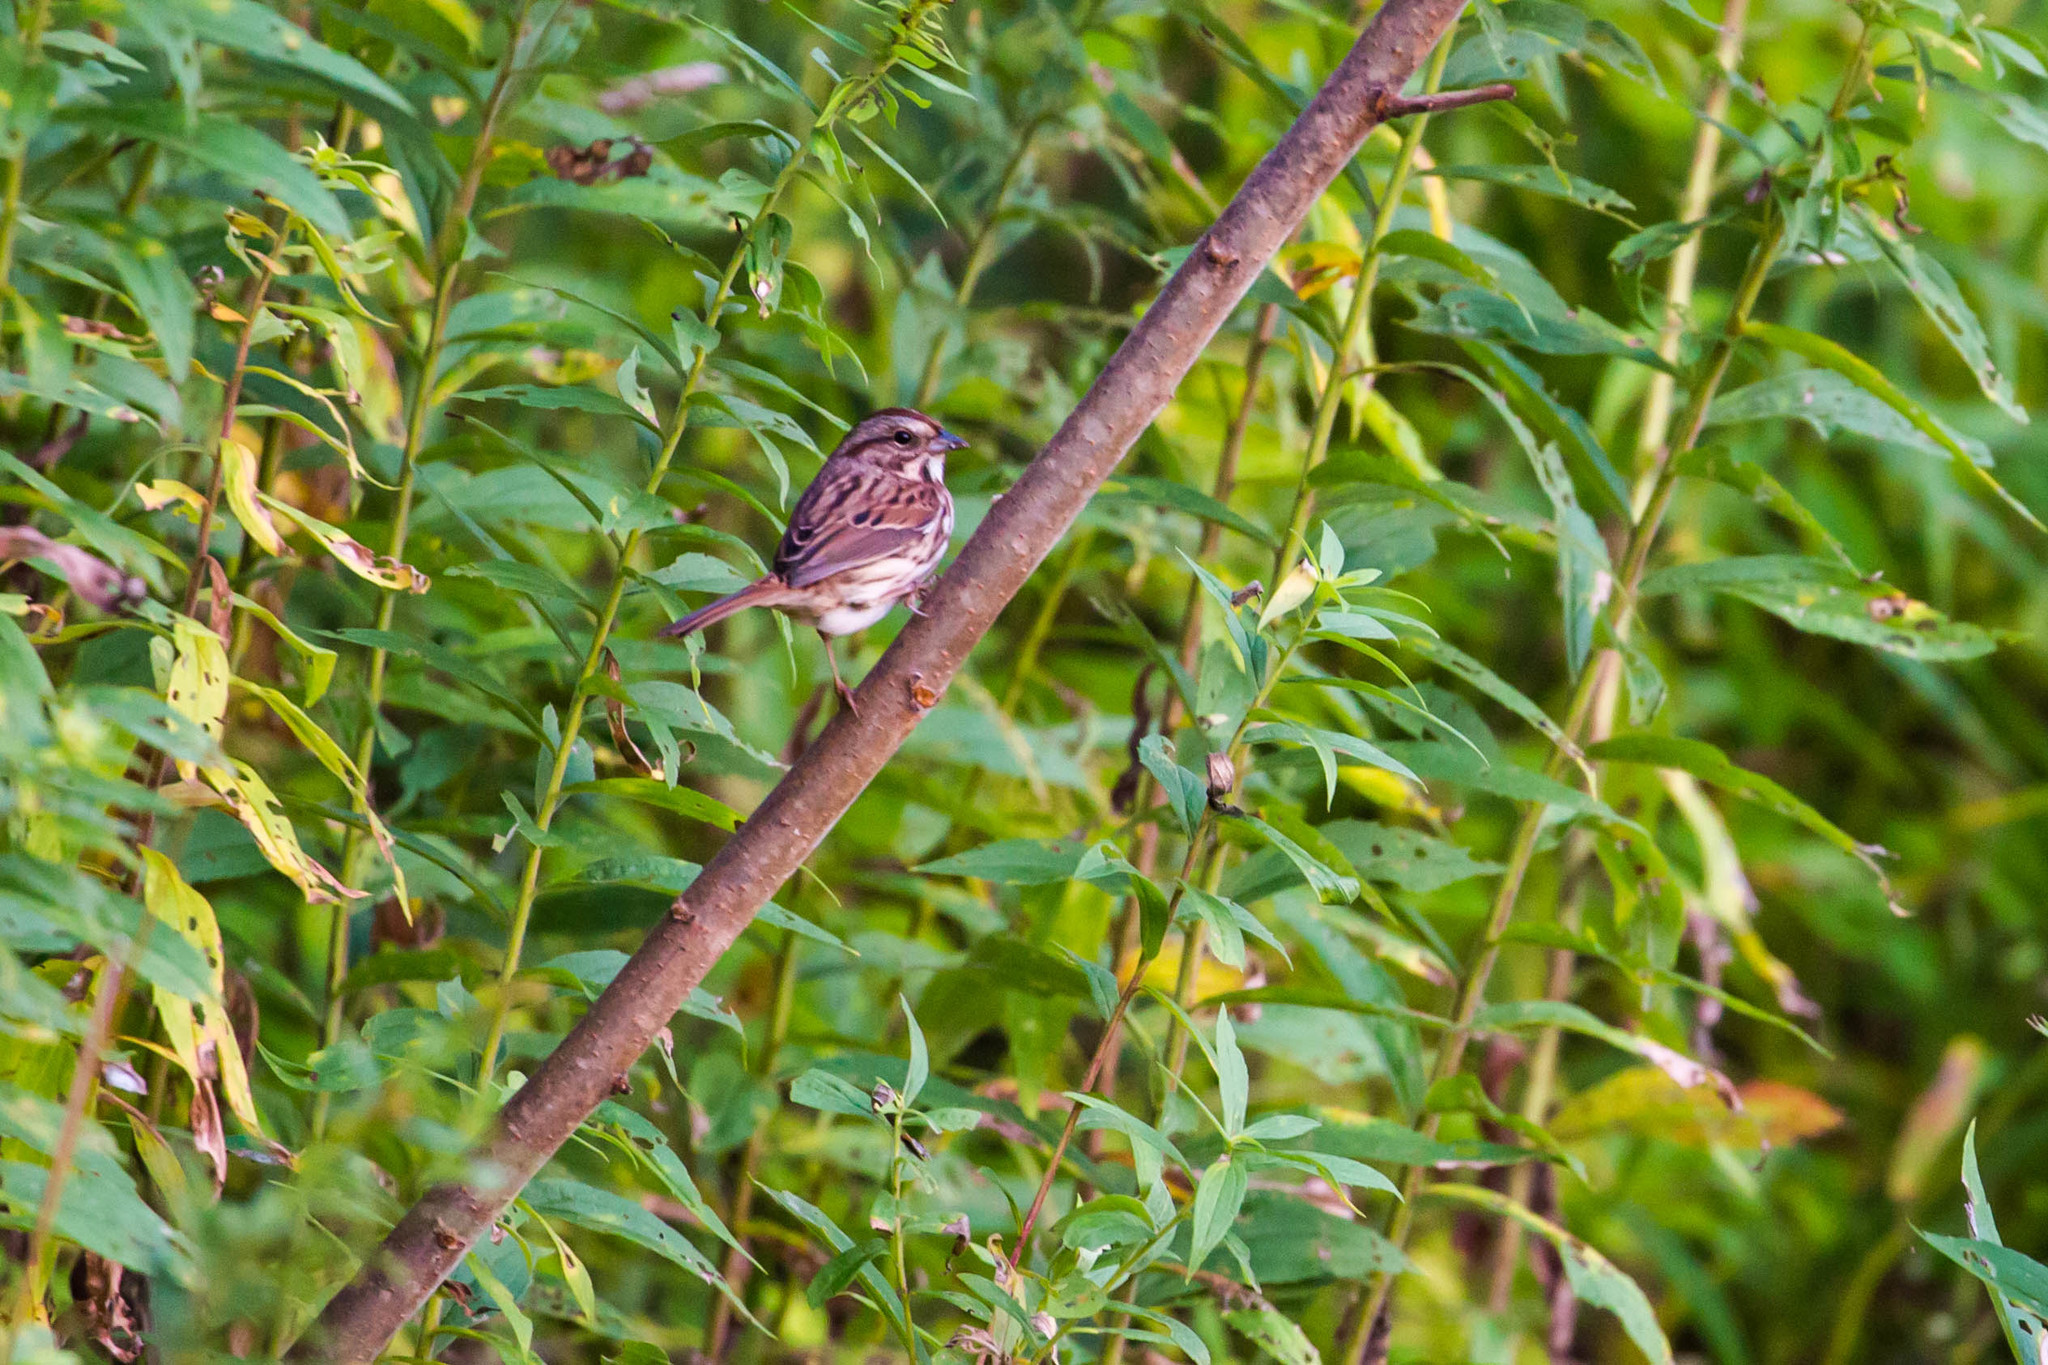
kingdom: Animalia
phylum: Chordata
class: Aves
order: Passeriformes
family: Passerellidae
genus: Melospiza
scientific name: Melospiza melodia
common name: Song sparrow
